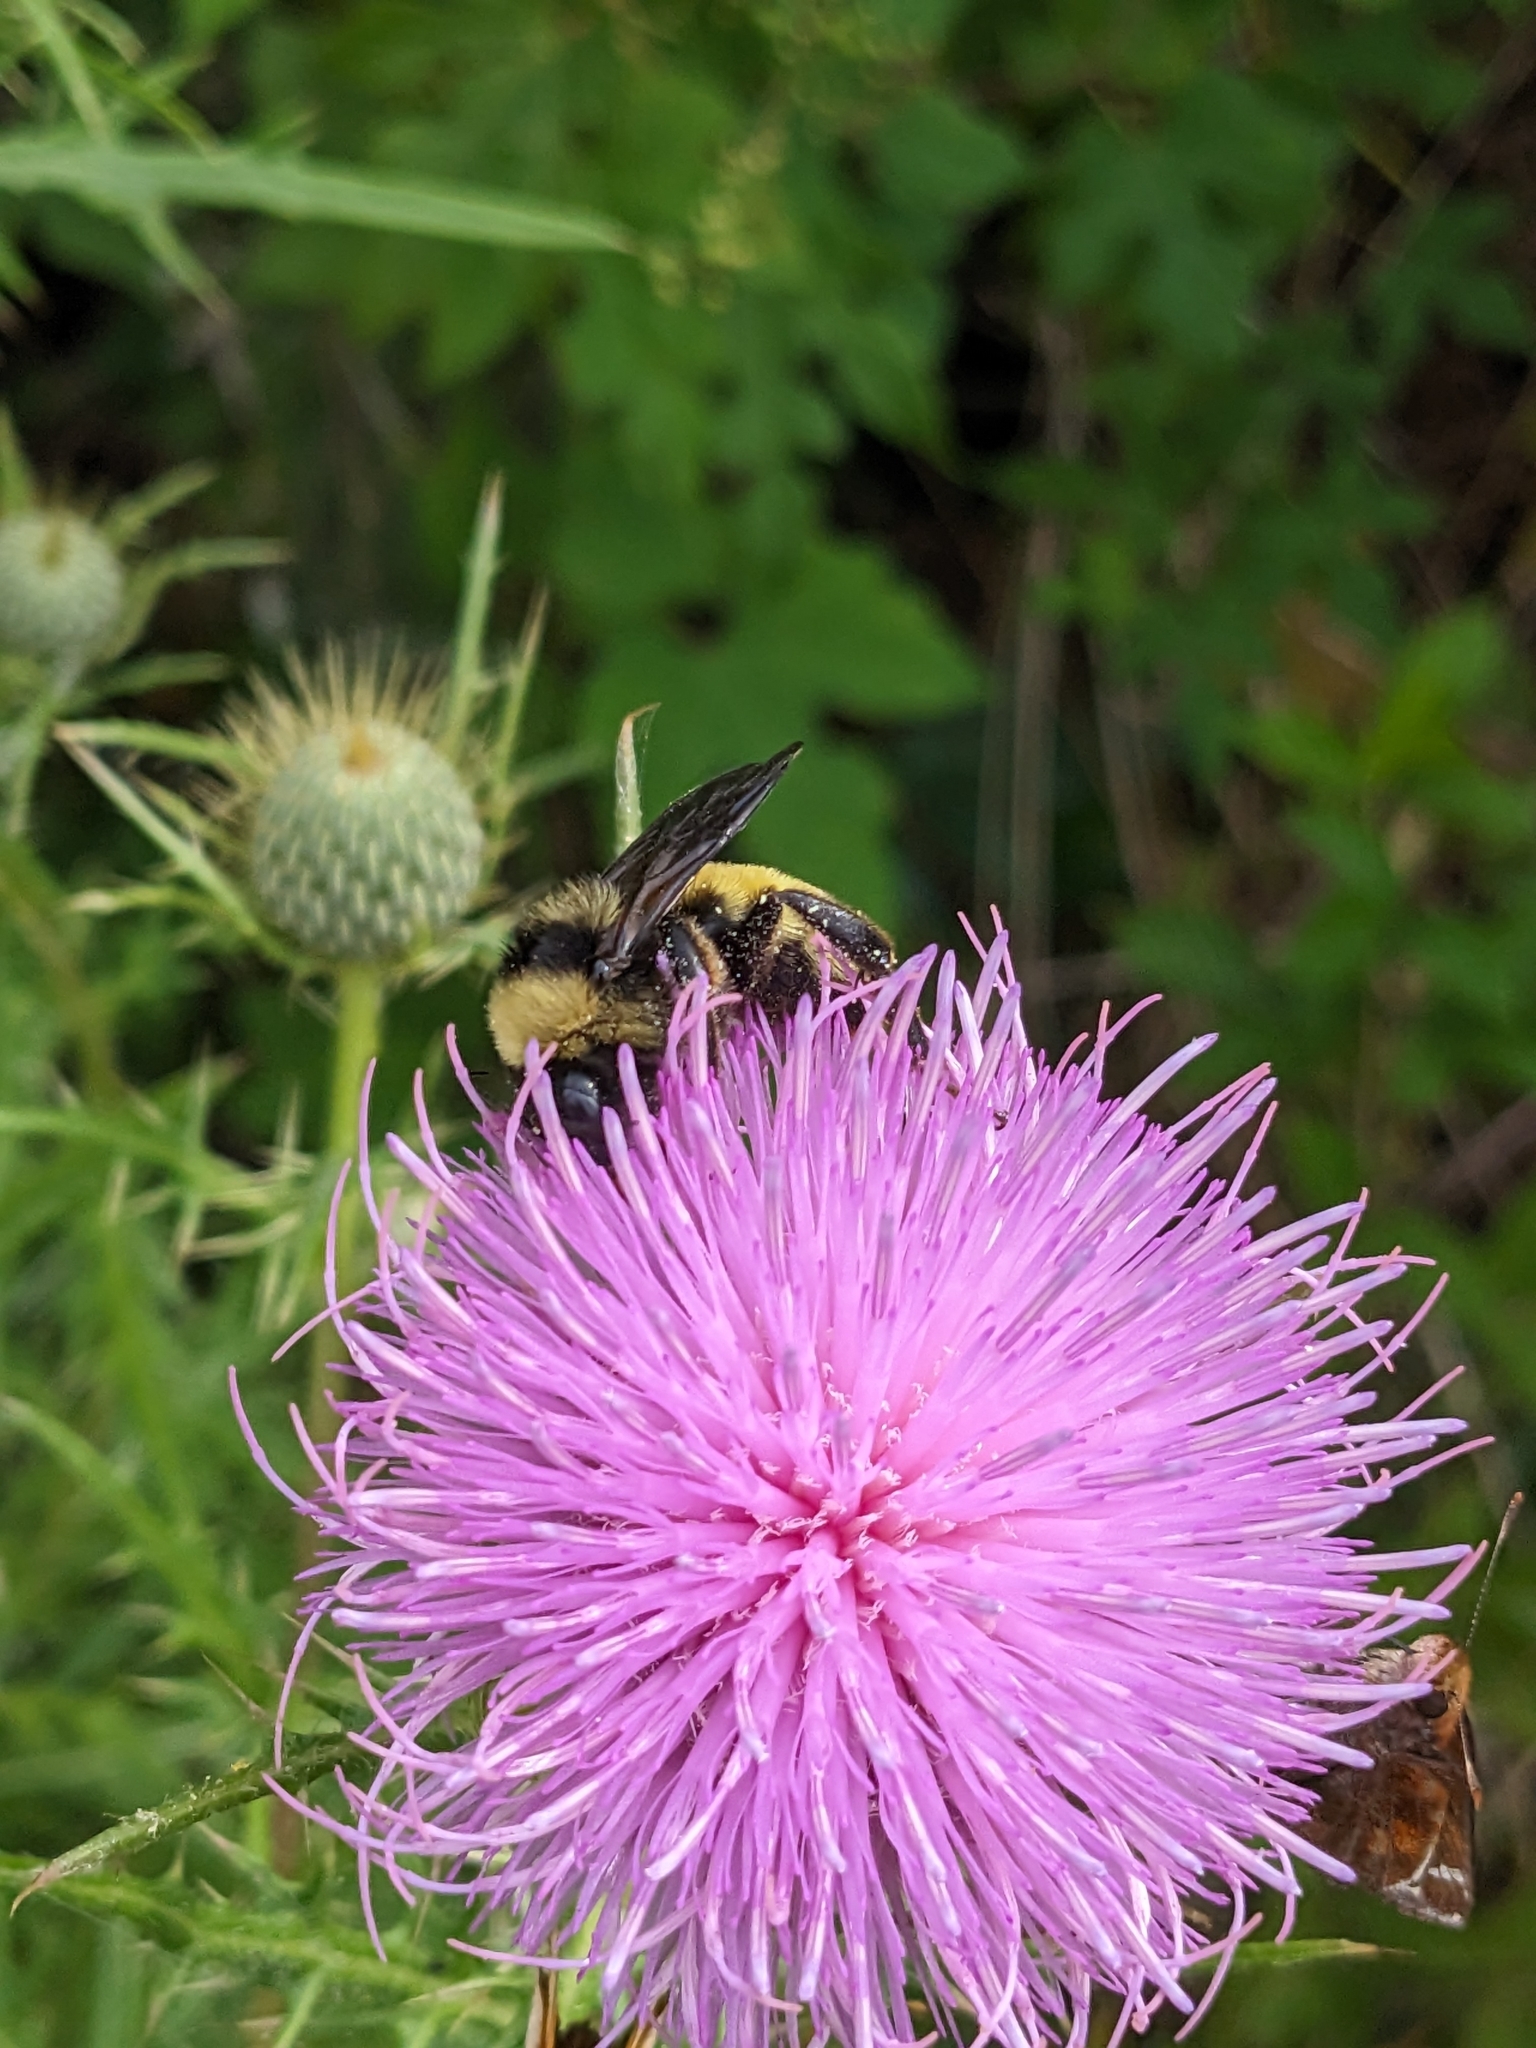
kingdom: Animalia
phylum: Arthropoda
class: Insecta
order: Hymenoptera
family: Apidae
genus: Bombus
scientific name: Bombus pensylvanicus
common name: Bumble bee
